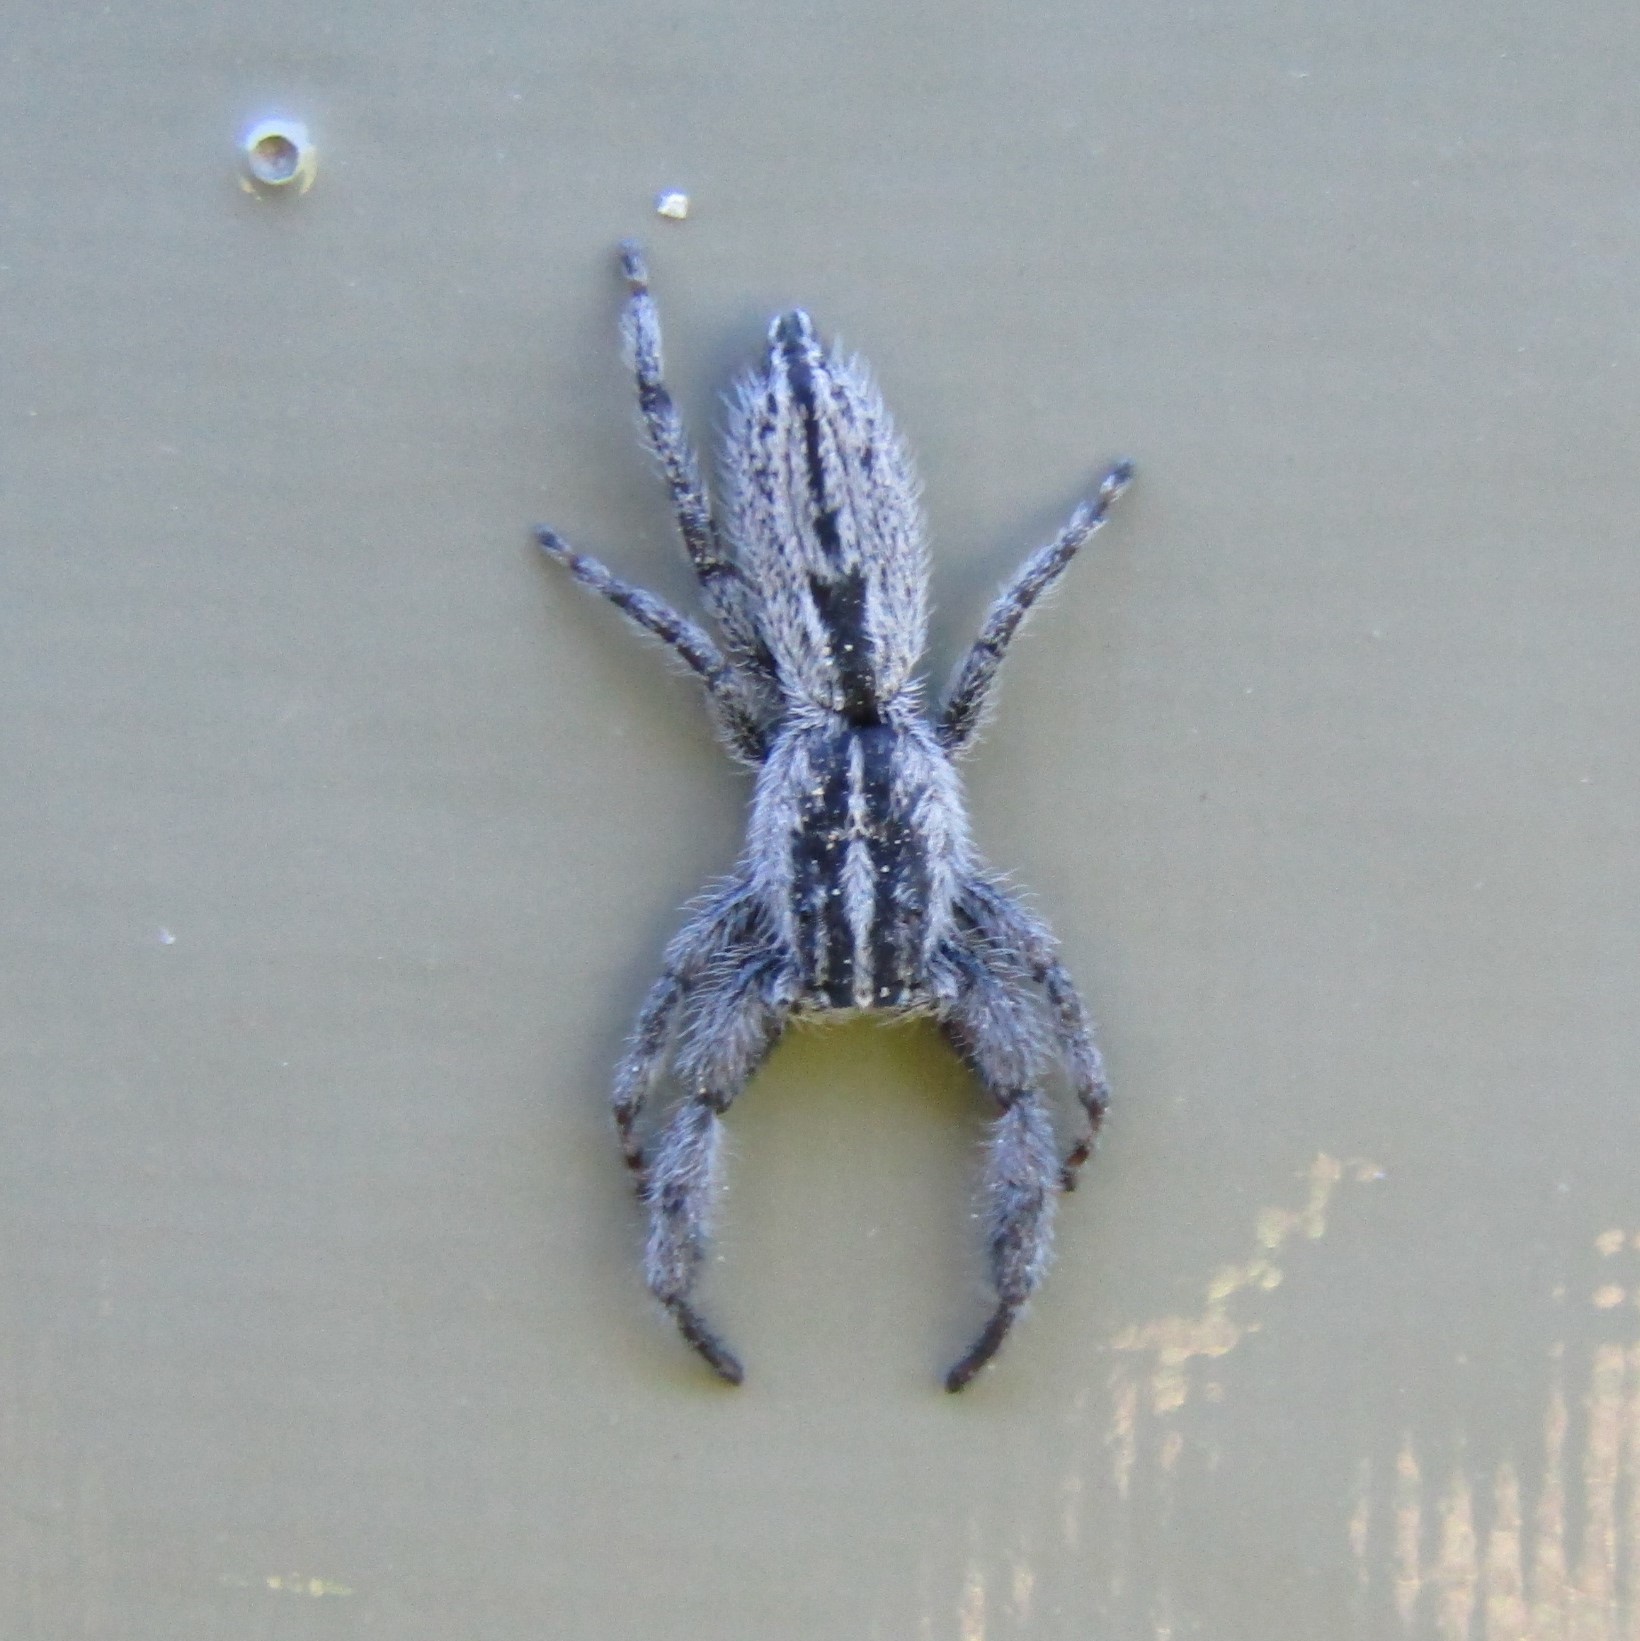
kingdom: Animalia
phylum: Arthropoda
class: Arachnida
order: Araneae
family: Salticidae
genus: Holoplatys
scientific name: Holoplatys apressus
